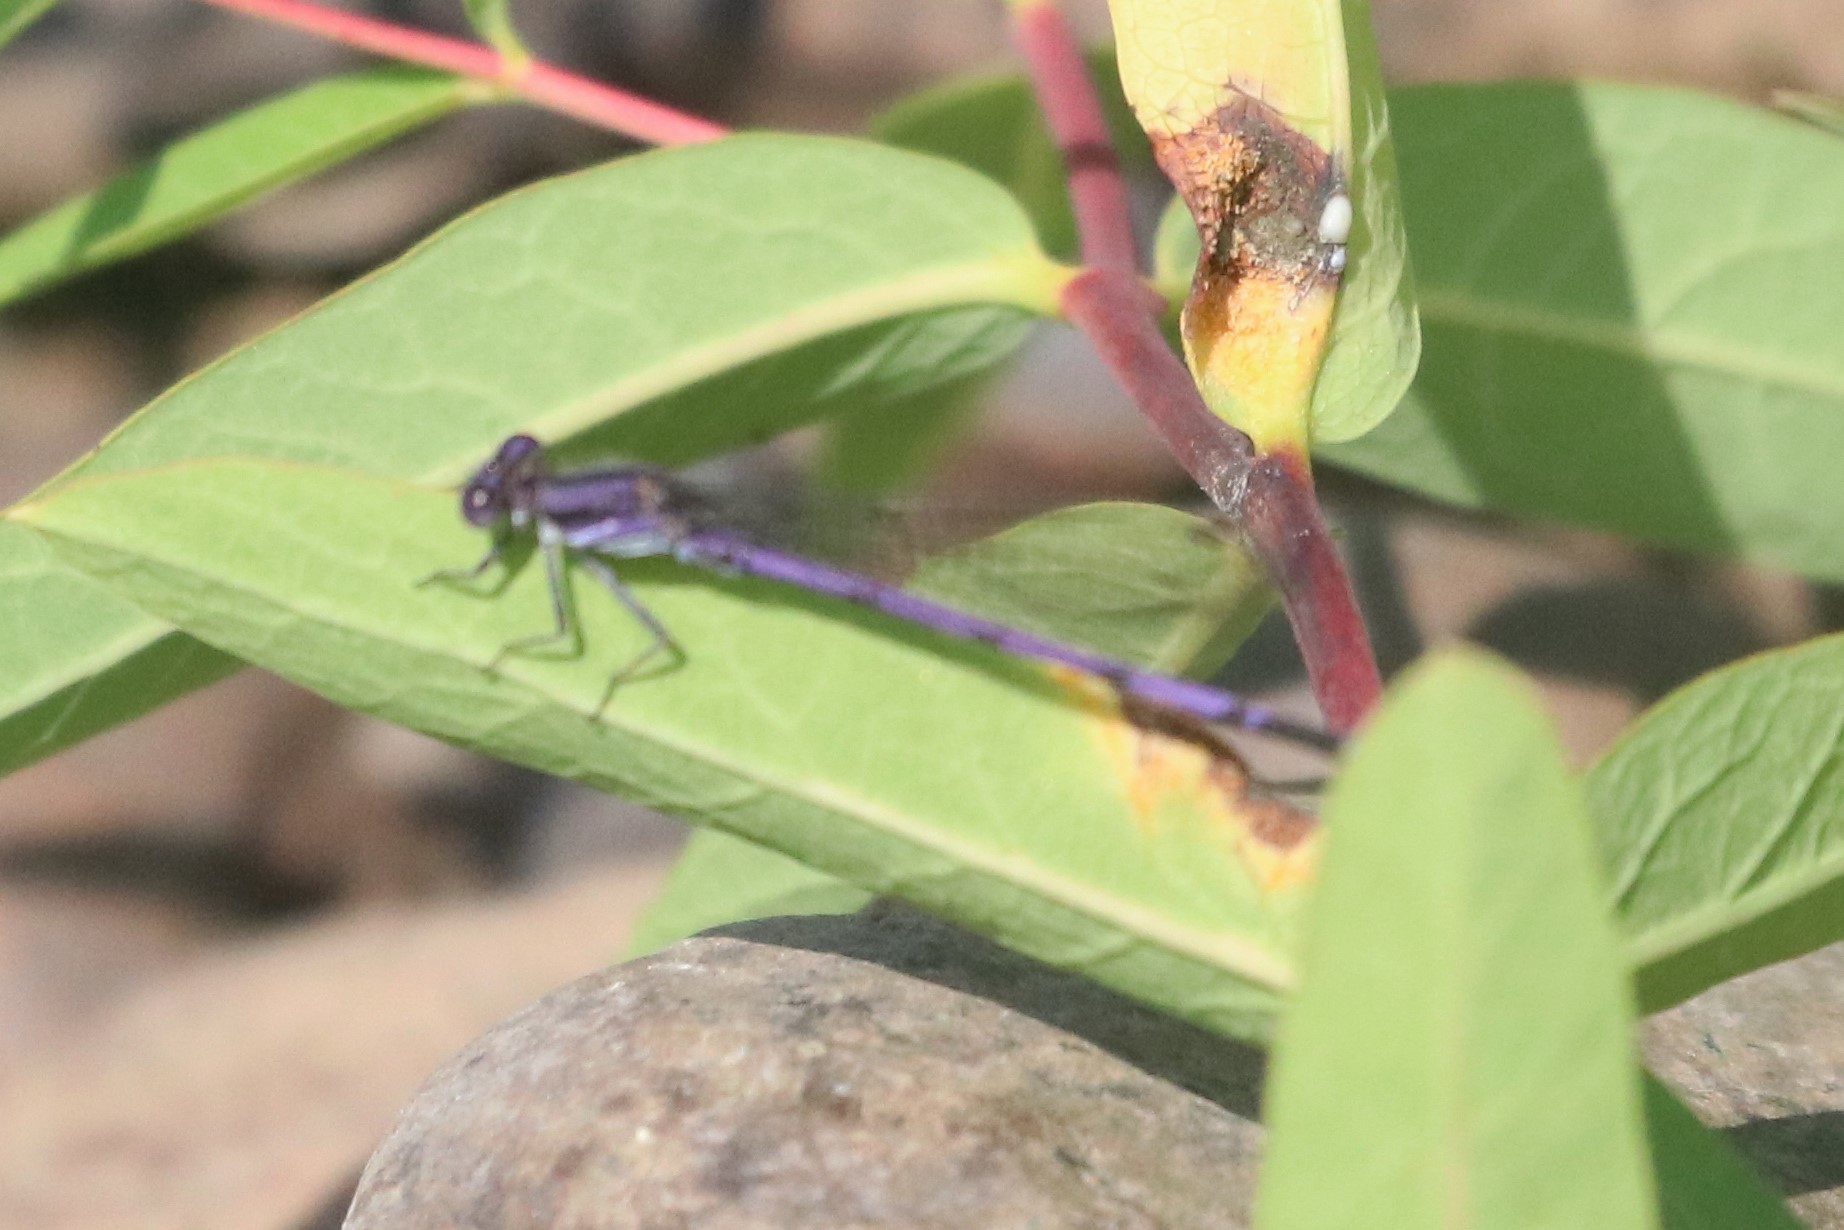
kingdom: Animalia
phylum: Arthropoda
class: Insecta
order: Odonata
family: Coenagrionidae
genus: Argia
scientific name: Argia fumipennis
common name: Variable dancer
